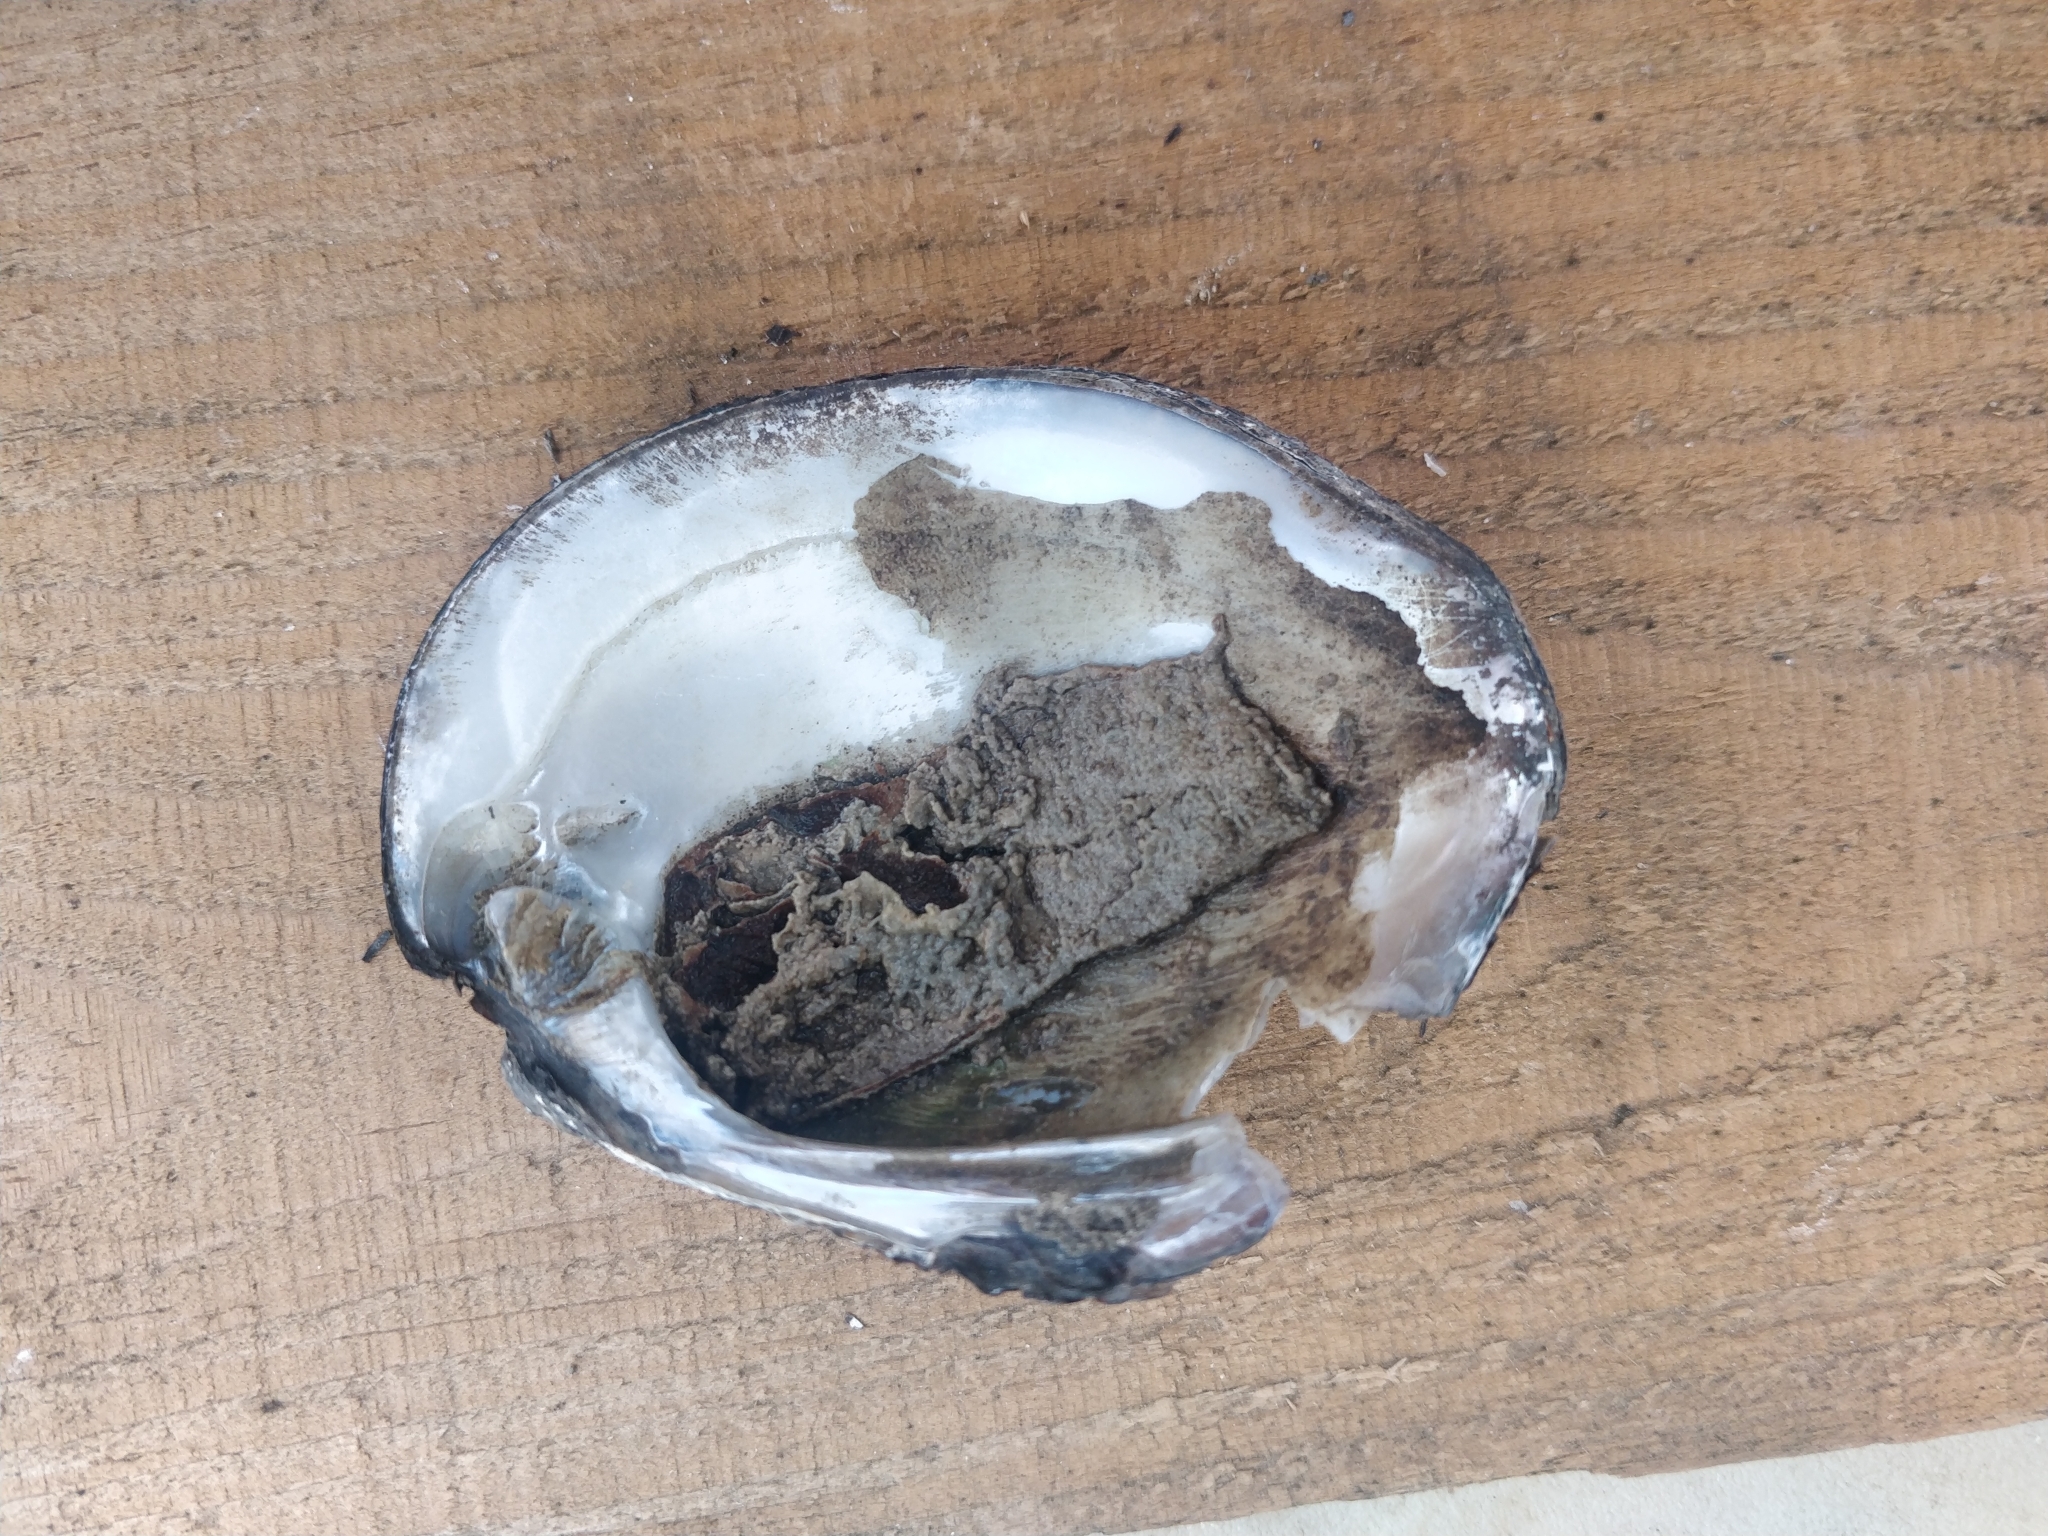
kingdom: Animalia
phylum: Mollusca
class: Bivalvia
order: Unionida
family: Unionidae
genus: Amblema
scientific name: Amblema plicata
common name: Threeridge
